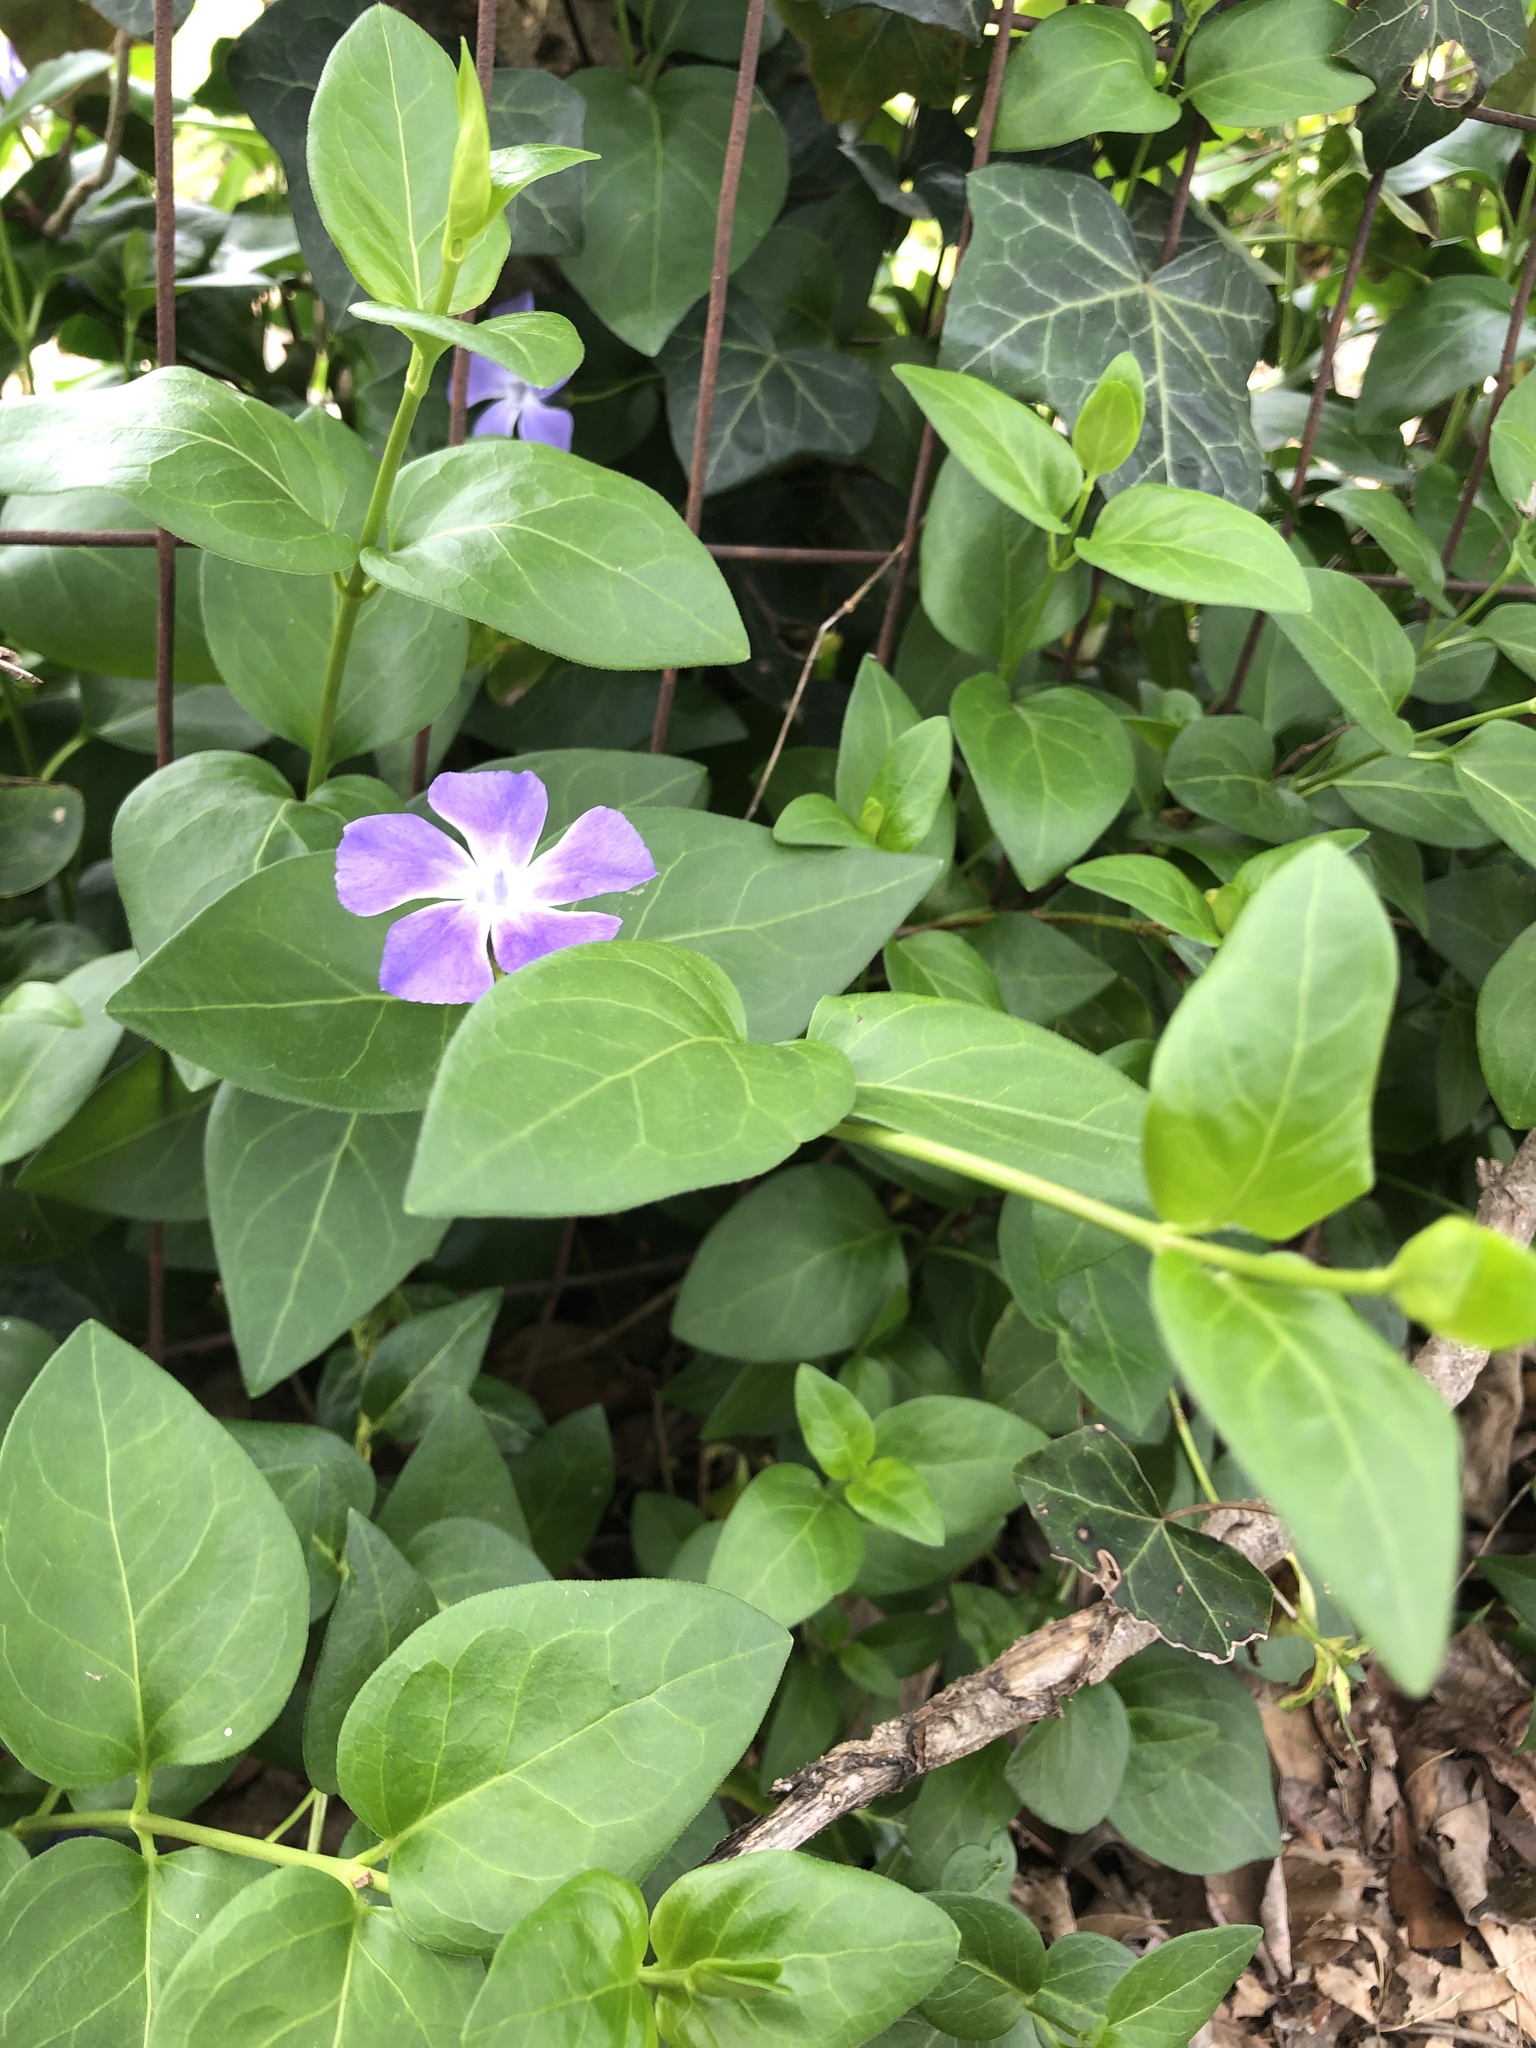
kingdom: Plantae
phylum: Tracheophyta
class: Magnoliopsida
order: Gentianales
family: Apocynaceae
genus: Vinca
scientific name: Vinca major
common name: Greater periwinkle
